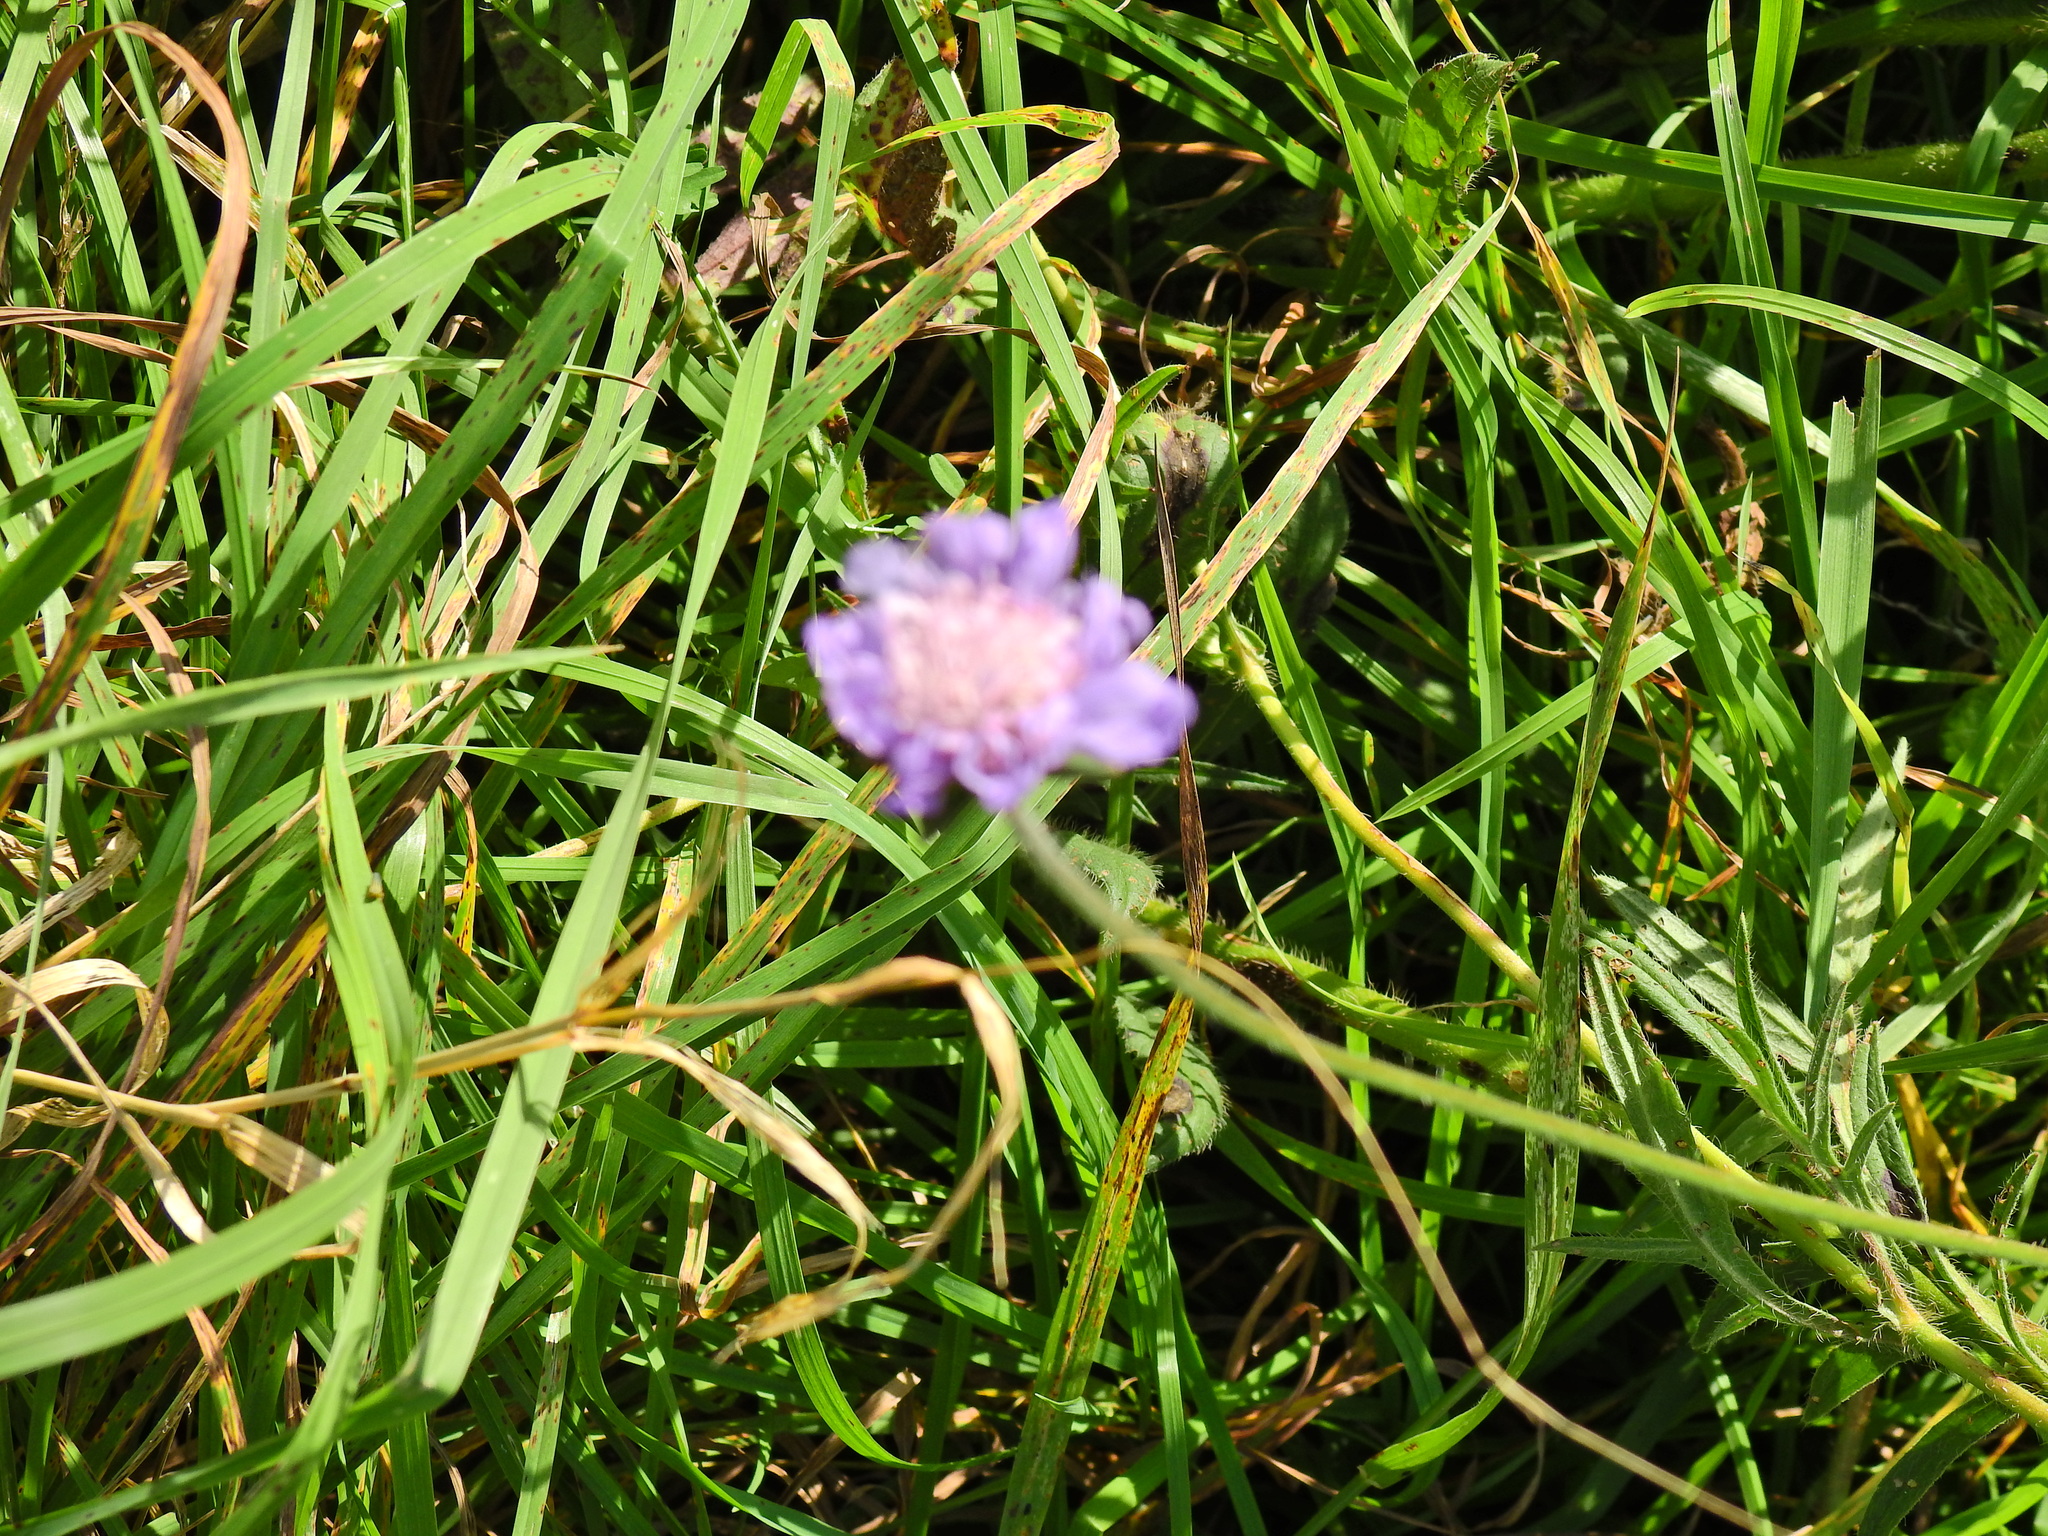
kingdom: Plantae
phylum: Tracheophyta
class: Magnoliopsida
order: Dipsacales
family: Caprifoliaceae
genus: Knautia
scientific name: Knautia arvensis
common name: Field scabiosa
